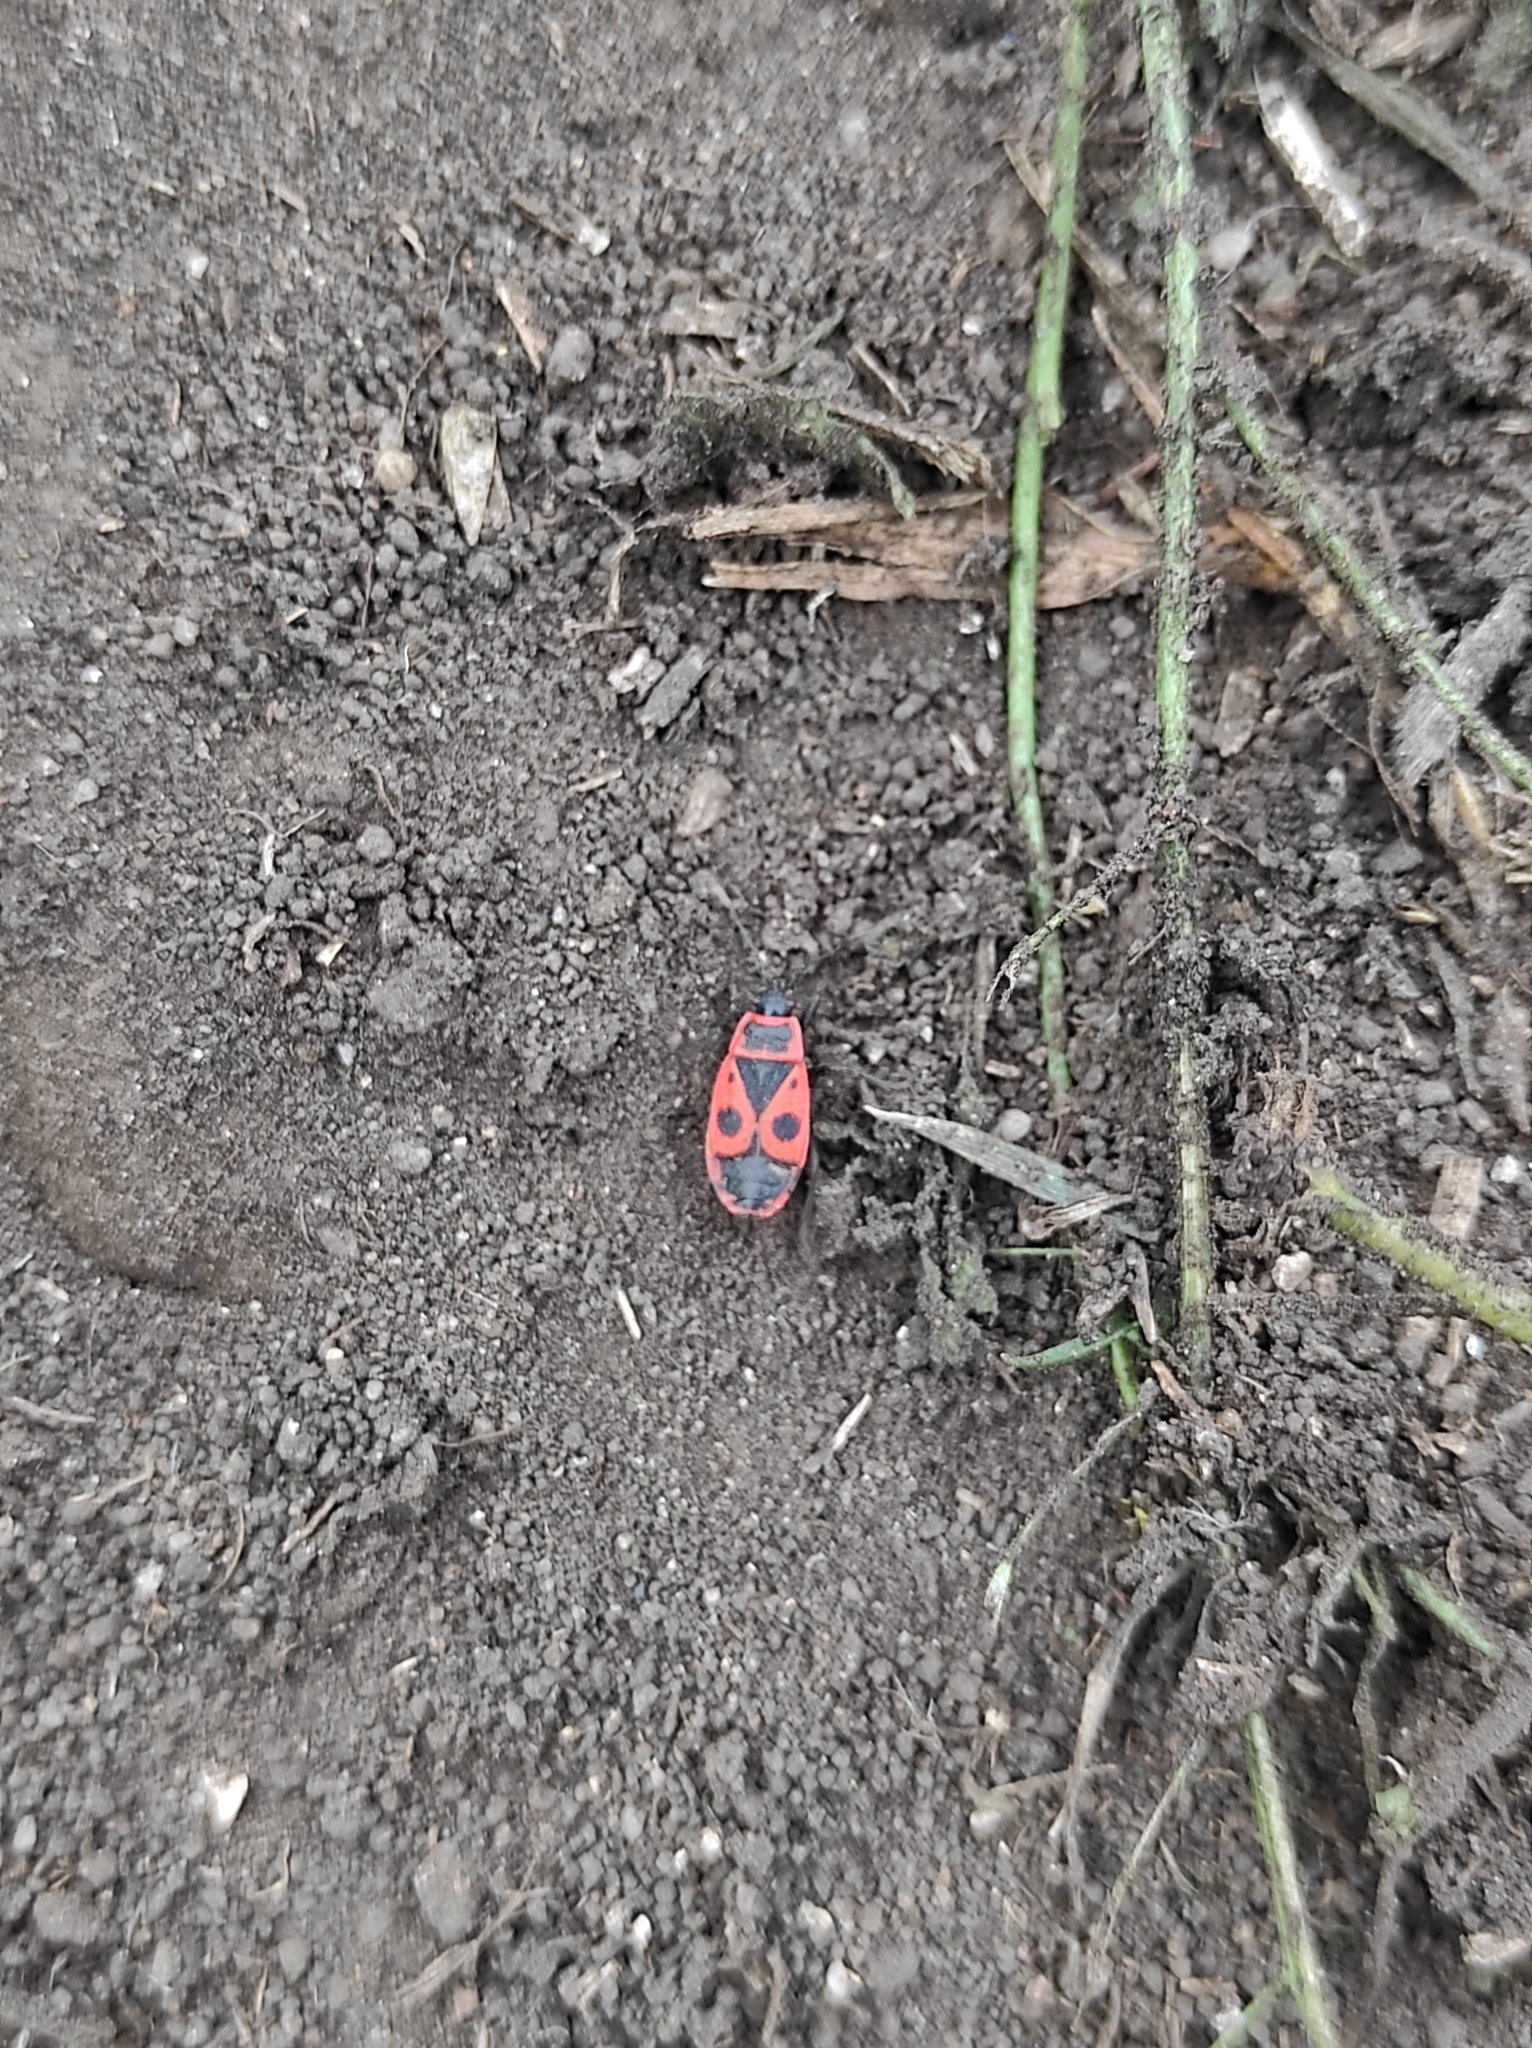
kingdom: Animalia
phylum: Arthropoda
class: Insecta
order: Hemiptera
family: Pyrrhocoridae
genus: Pyrrhocoris
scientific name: Pyrrhocoris apterus
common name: Firebug
